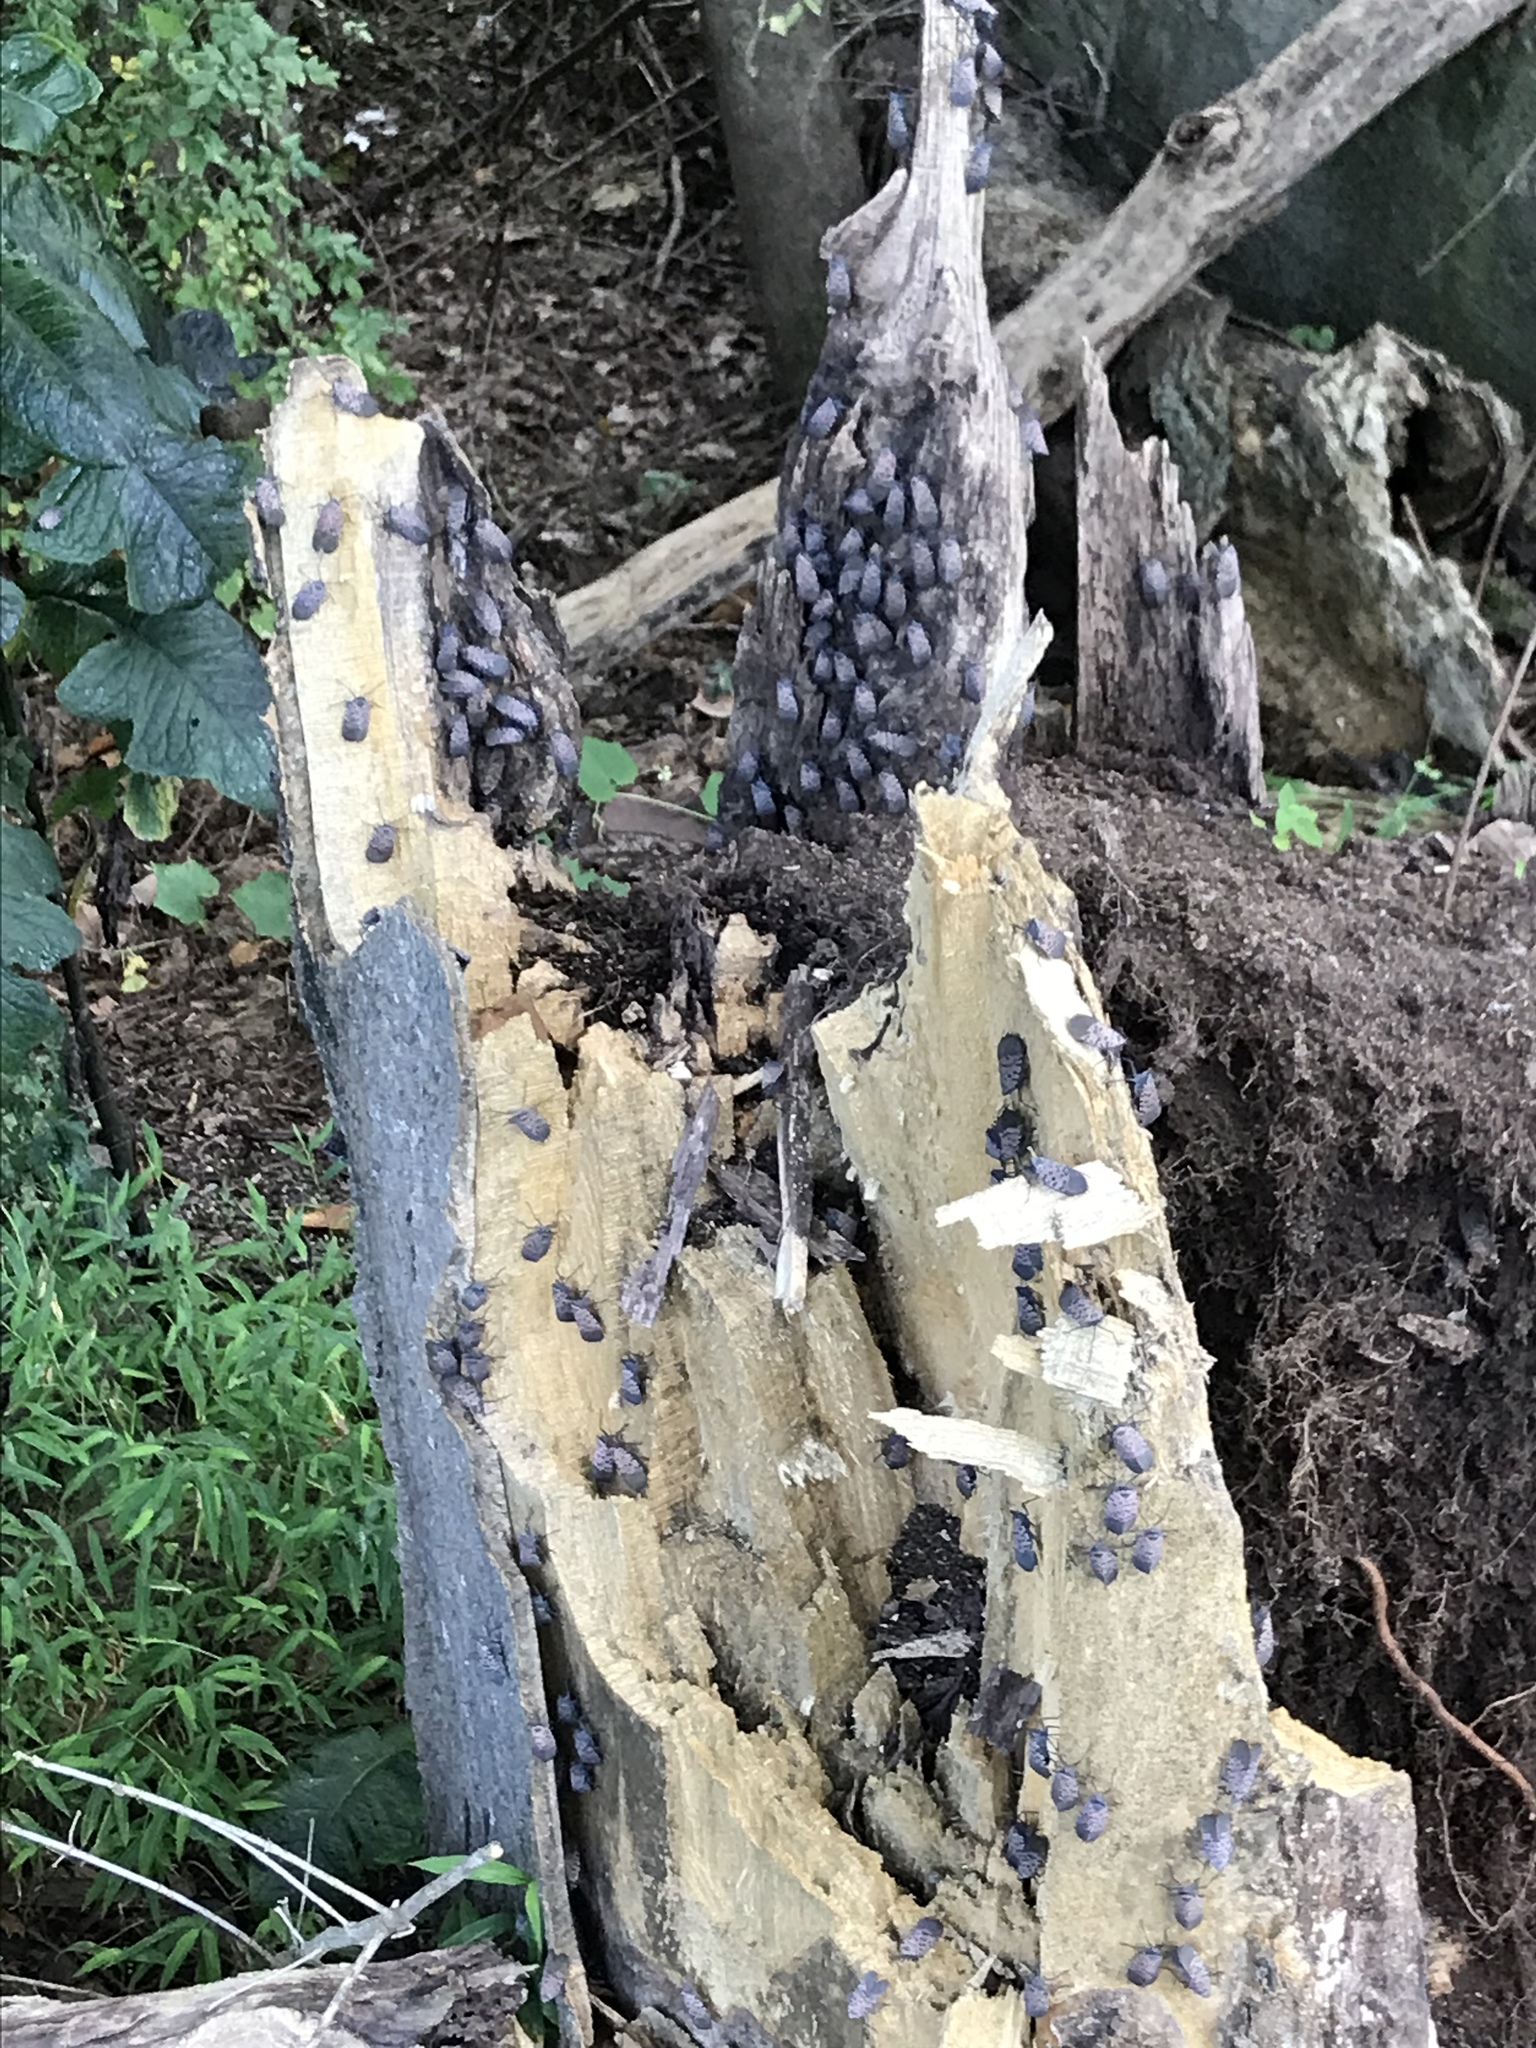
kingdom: Animalia
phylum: Arthropoda
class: Insecta
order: Hemiptera
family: Fulgoridae
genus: Lycorma
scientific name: Lycorma delicatula
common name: Spotted lanternfly
